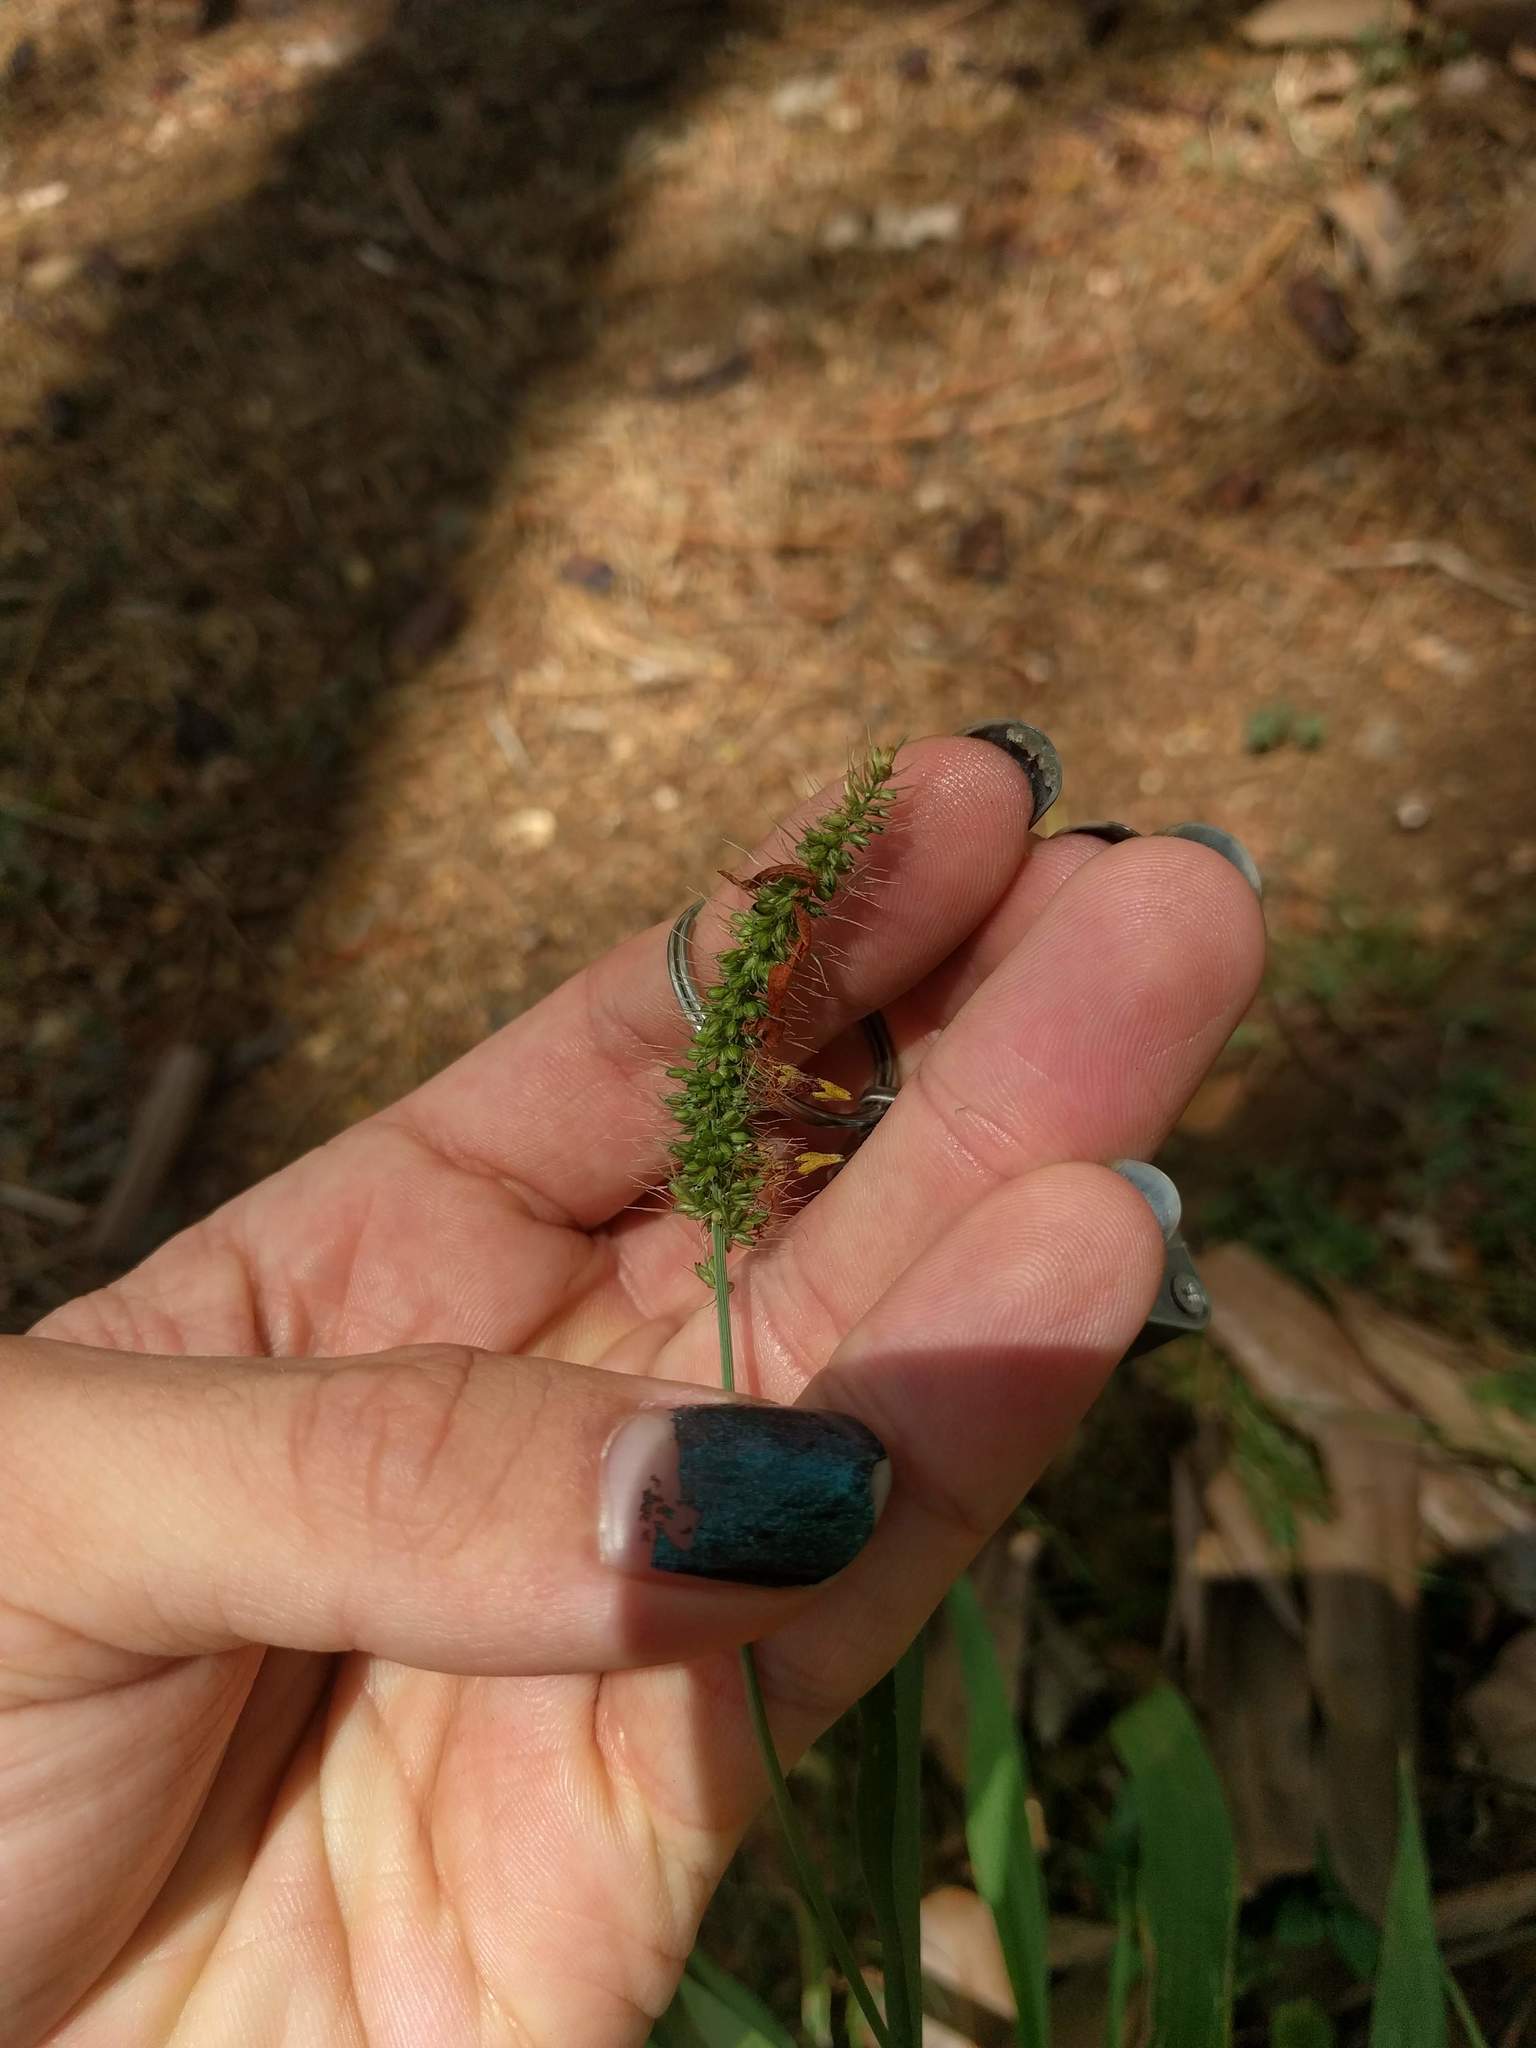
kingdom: Plantae
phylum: Tracheophyta
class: Liliopsida
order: Poales
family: Poaceae
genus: Setaria
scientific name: Setaria adhaerens
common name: Adherent bristle-grass
